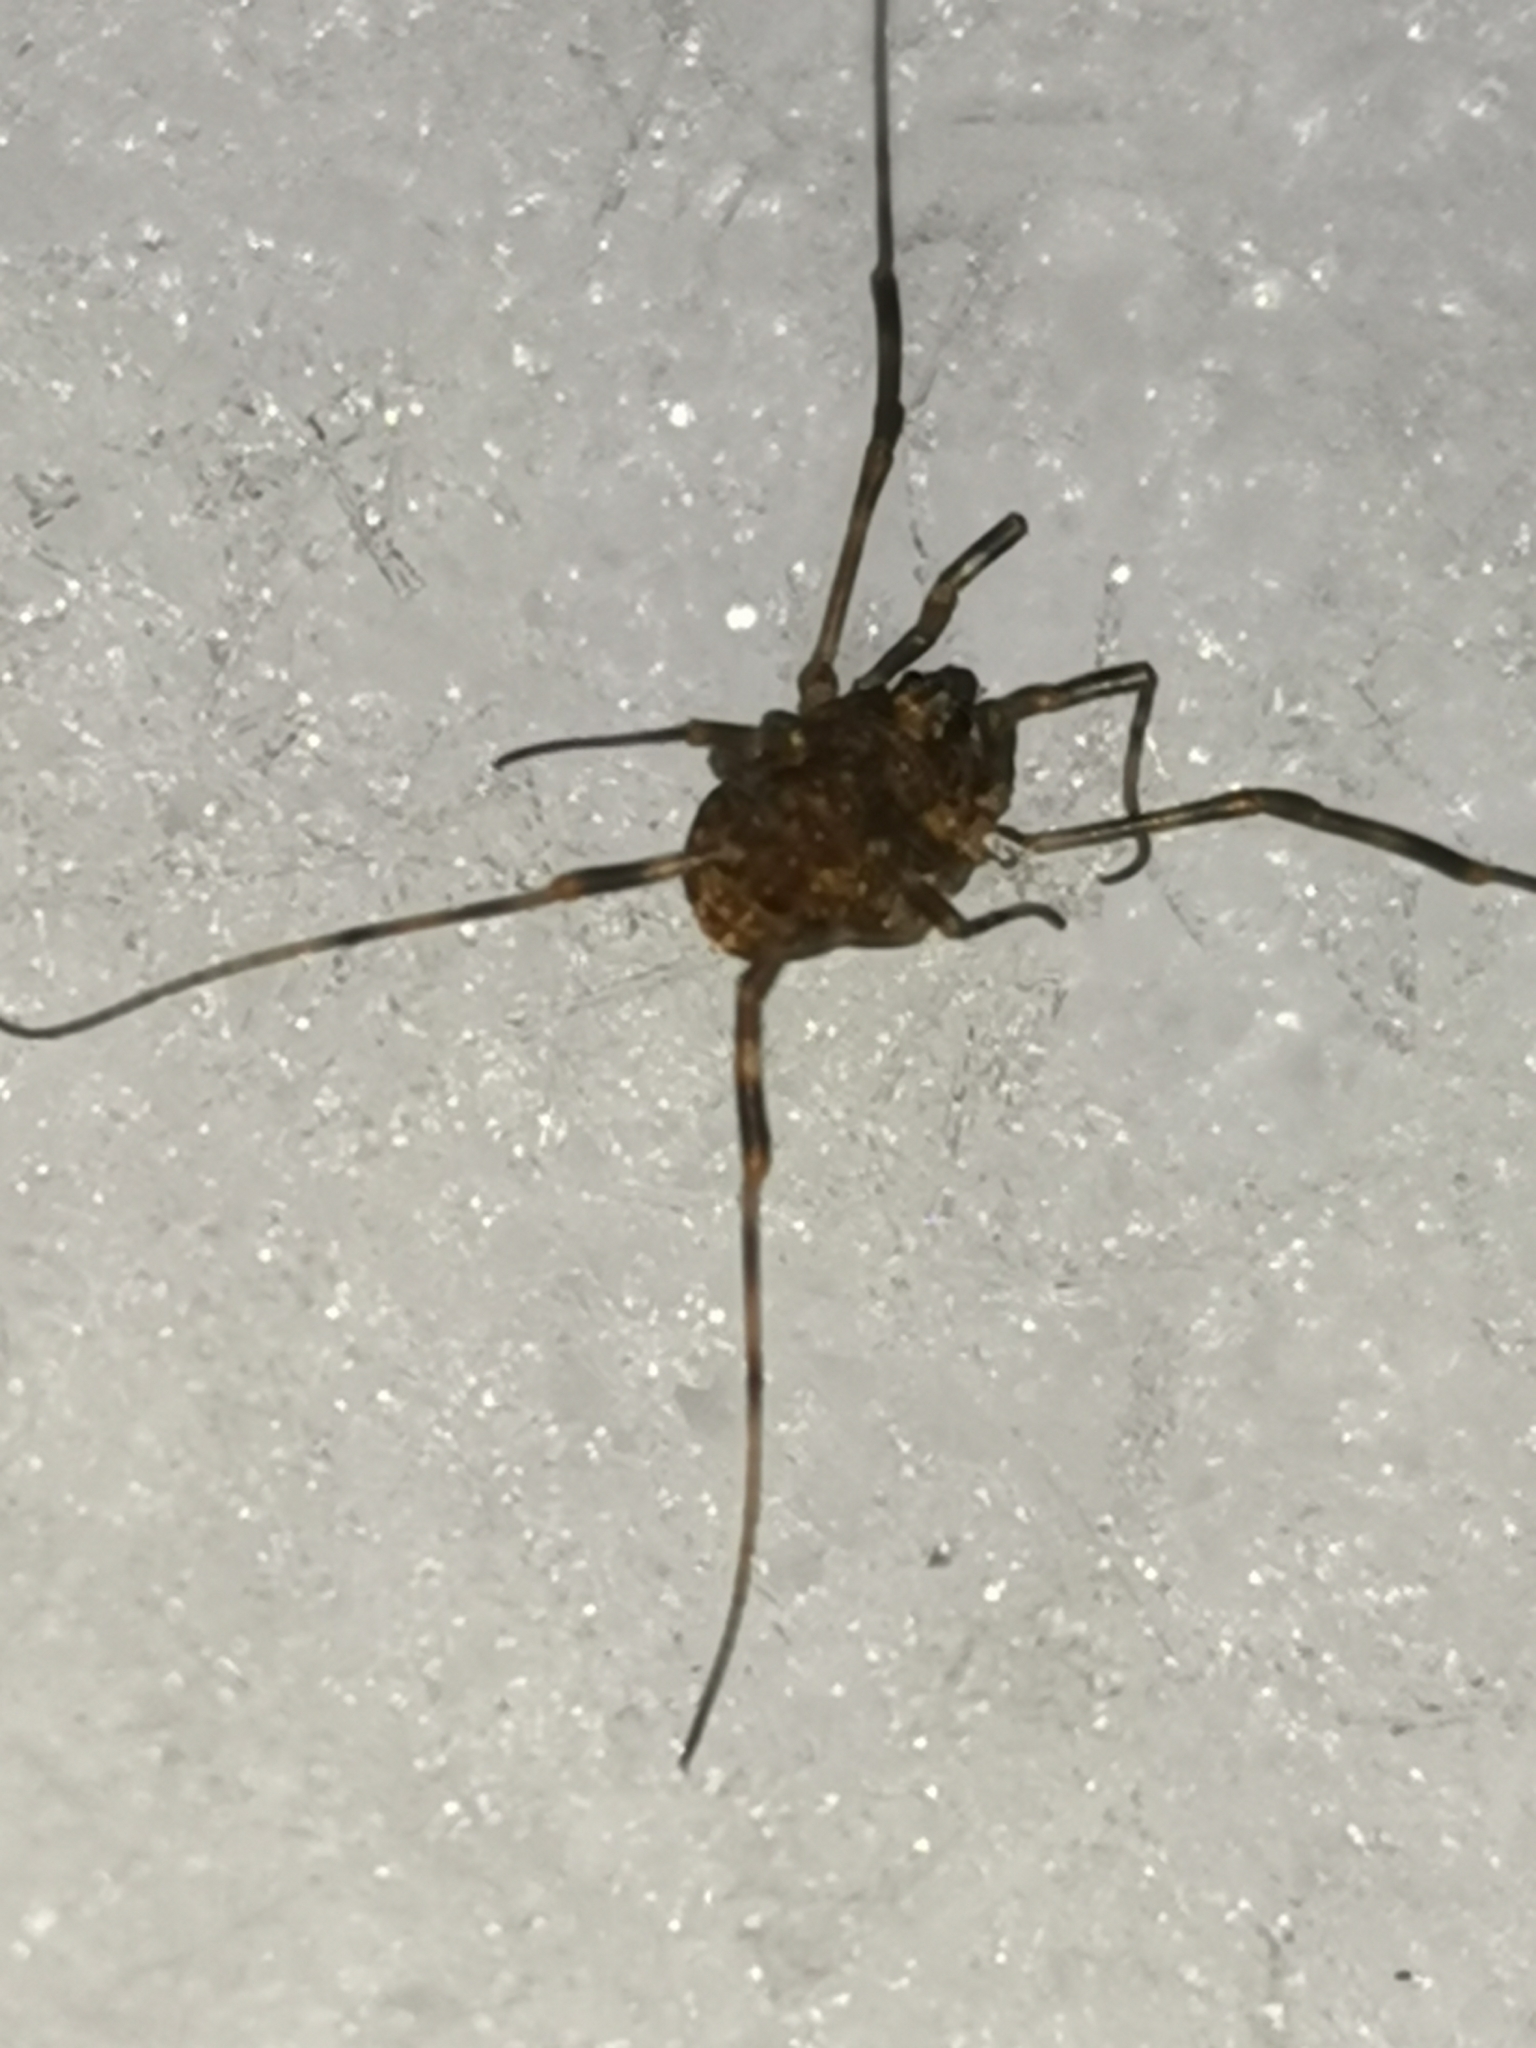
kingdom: Animalia
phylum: Arthropoda
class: Arachnida
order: Opiliones
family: Phalangiidae
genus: Rilaena
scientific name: Rilaena triangularis
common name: Spring harvestman
